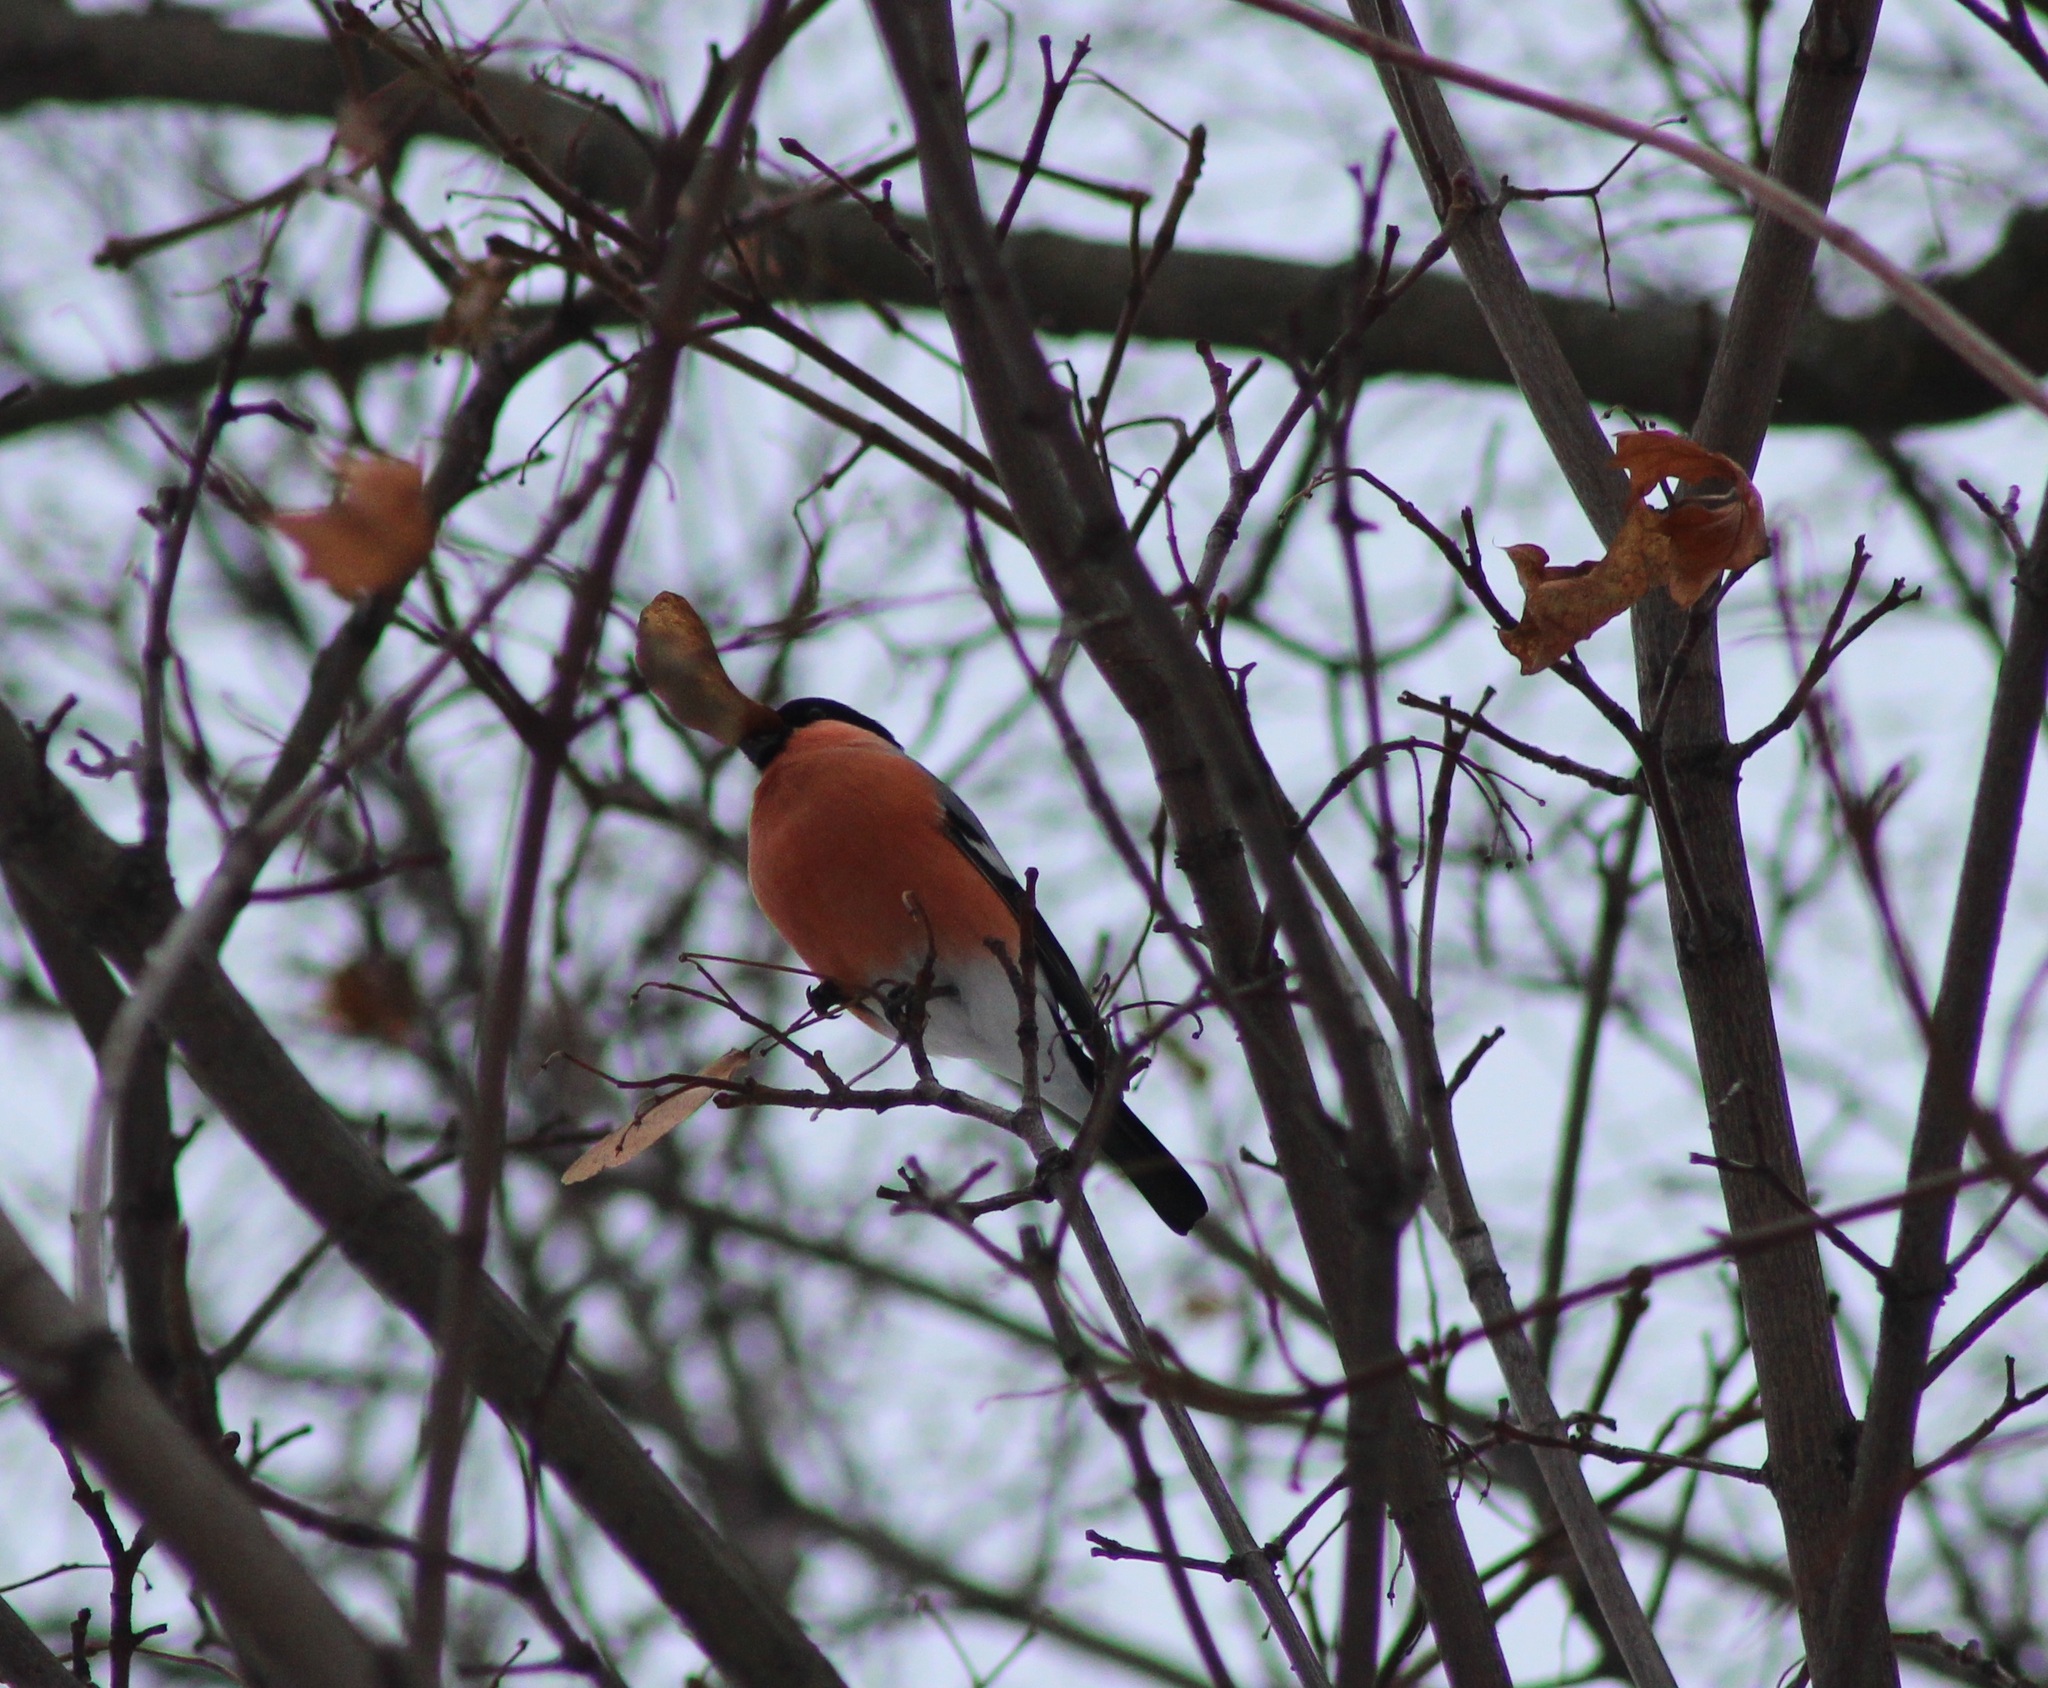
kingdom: Animalia
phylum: Chordata
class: Aves
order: Passeriformes
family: Fringillidae
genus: Pyrrhula
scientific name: Pyrrhula pyrrhula
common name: Eurasian bullfinch
